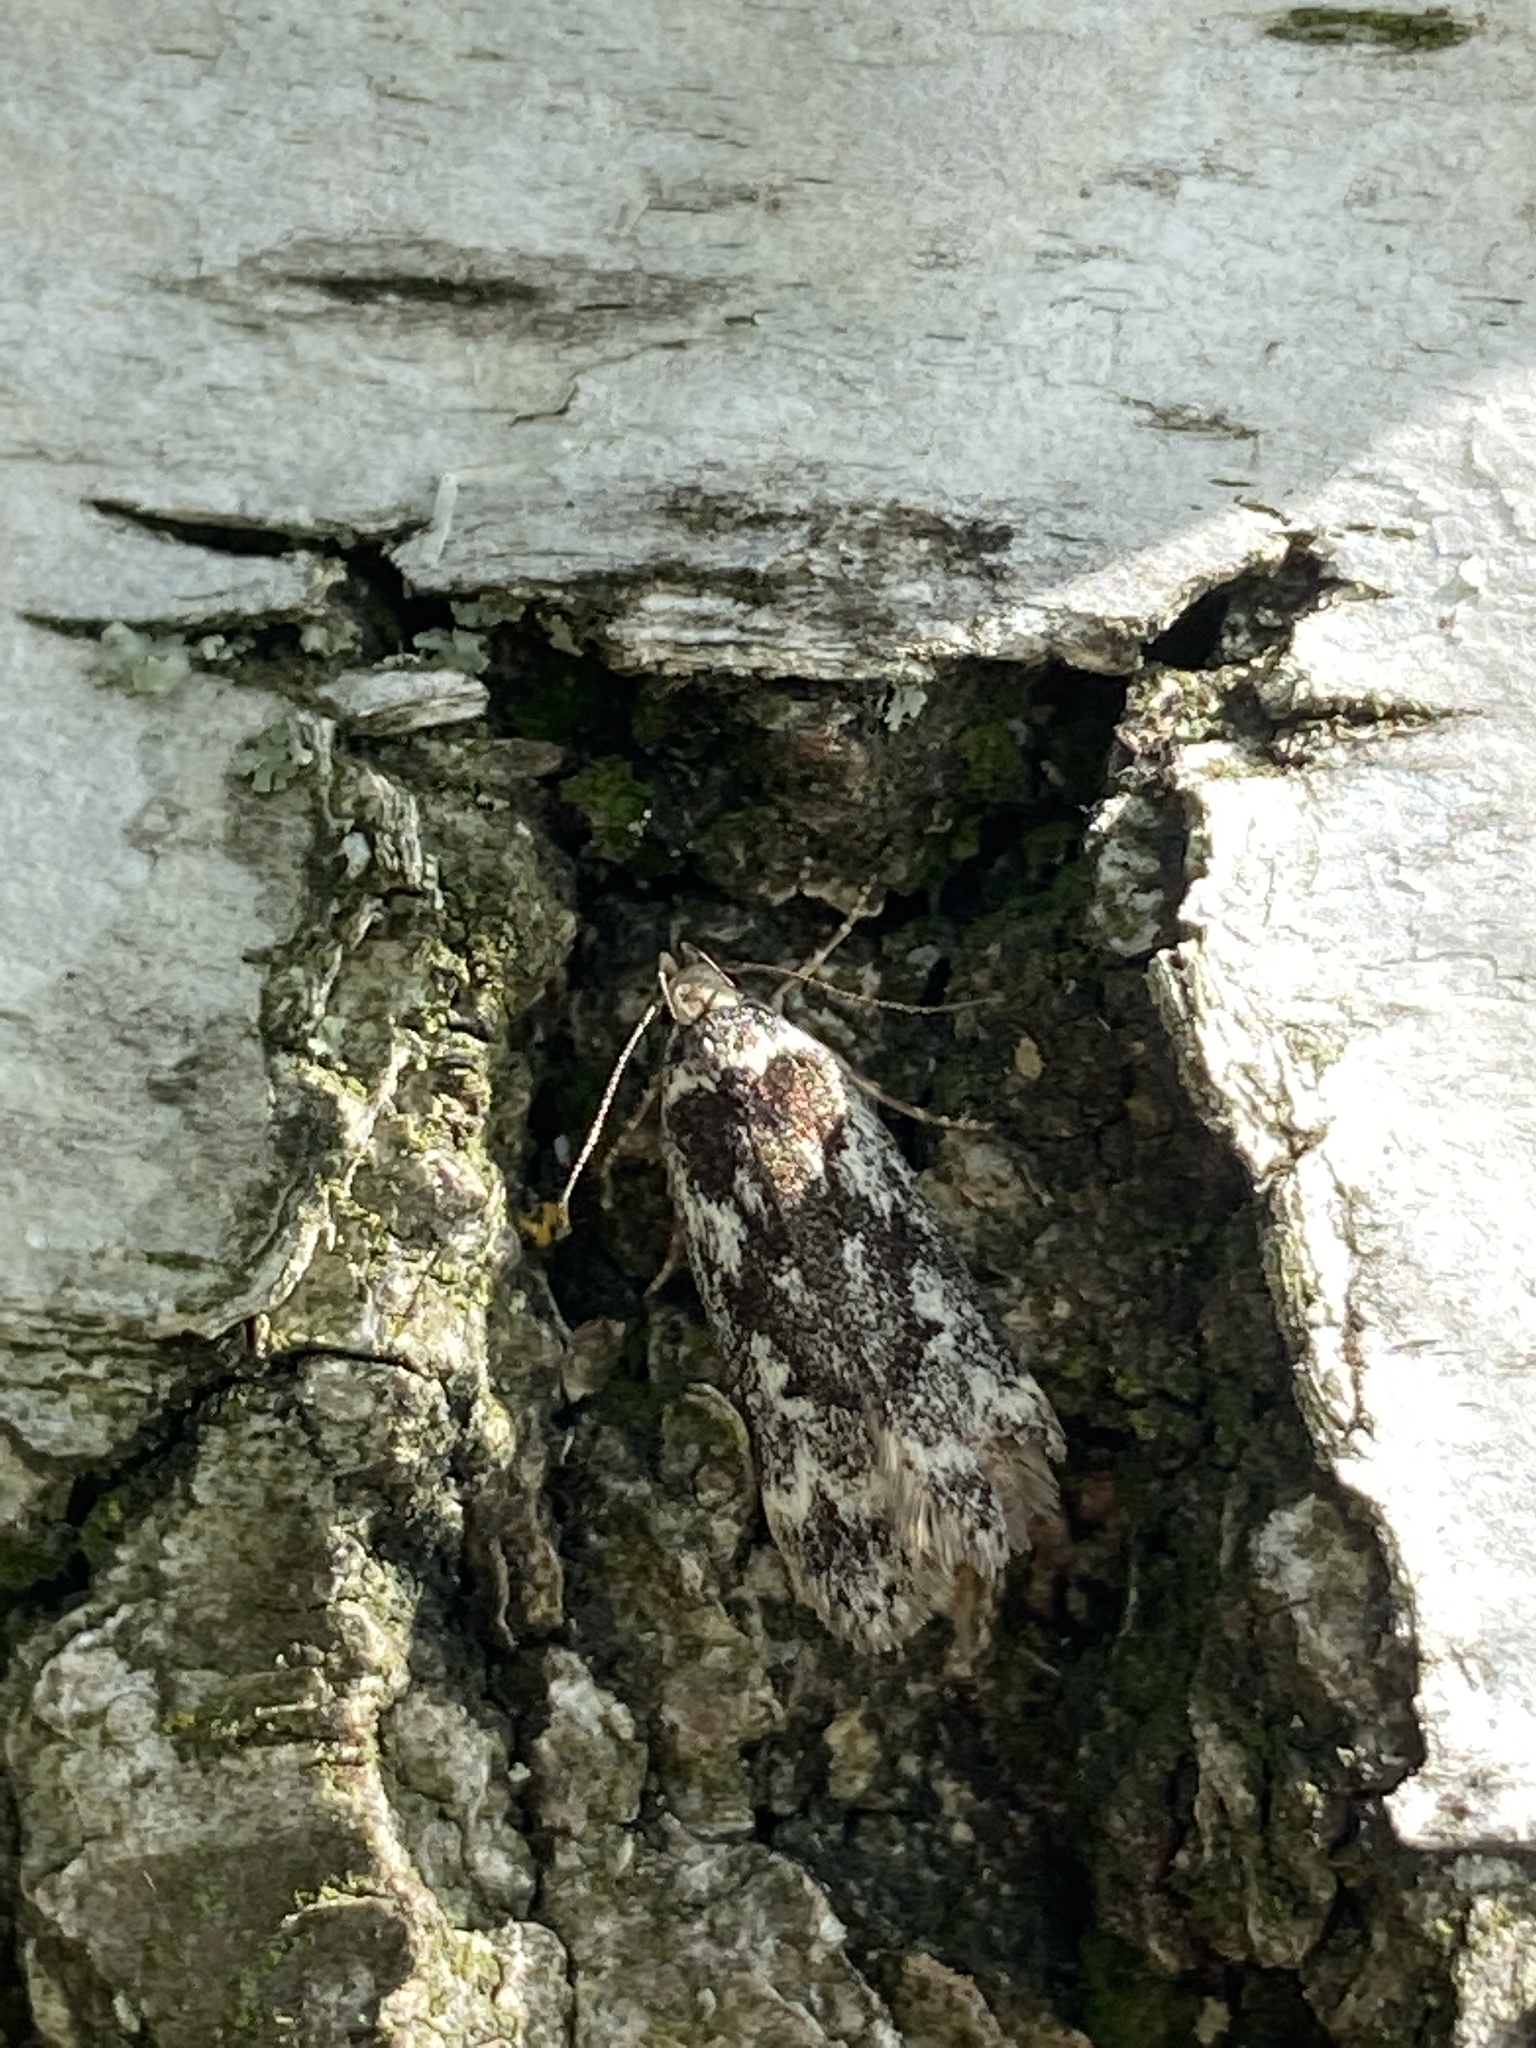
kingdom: Animalia
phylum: Arthropoda
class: Insecta
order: Lepidoptera
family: Gelechiidae
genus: Anacampsis
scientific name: Anacampsis blattariella
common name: Birch sober
